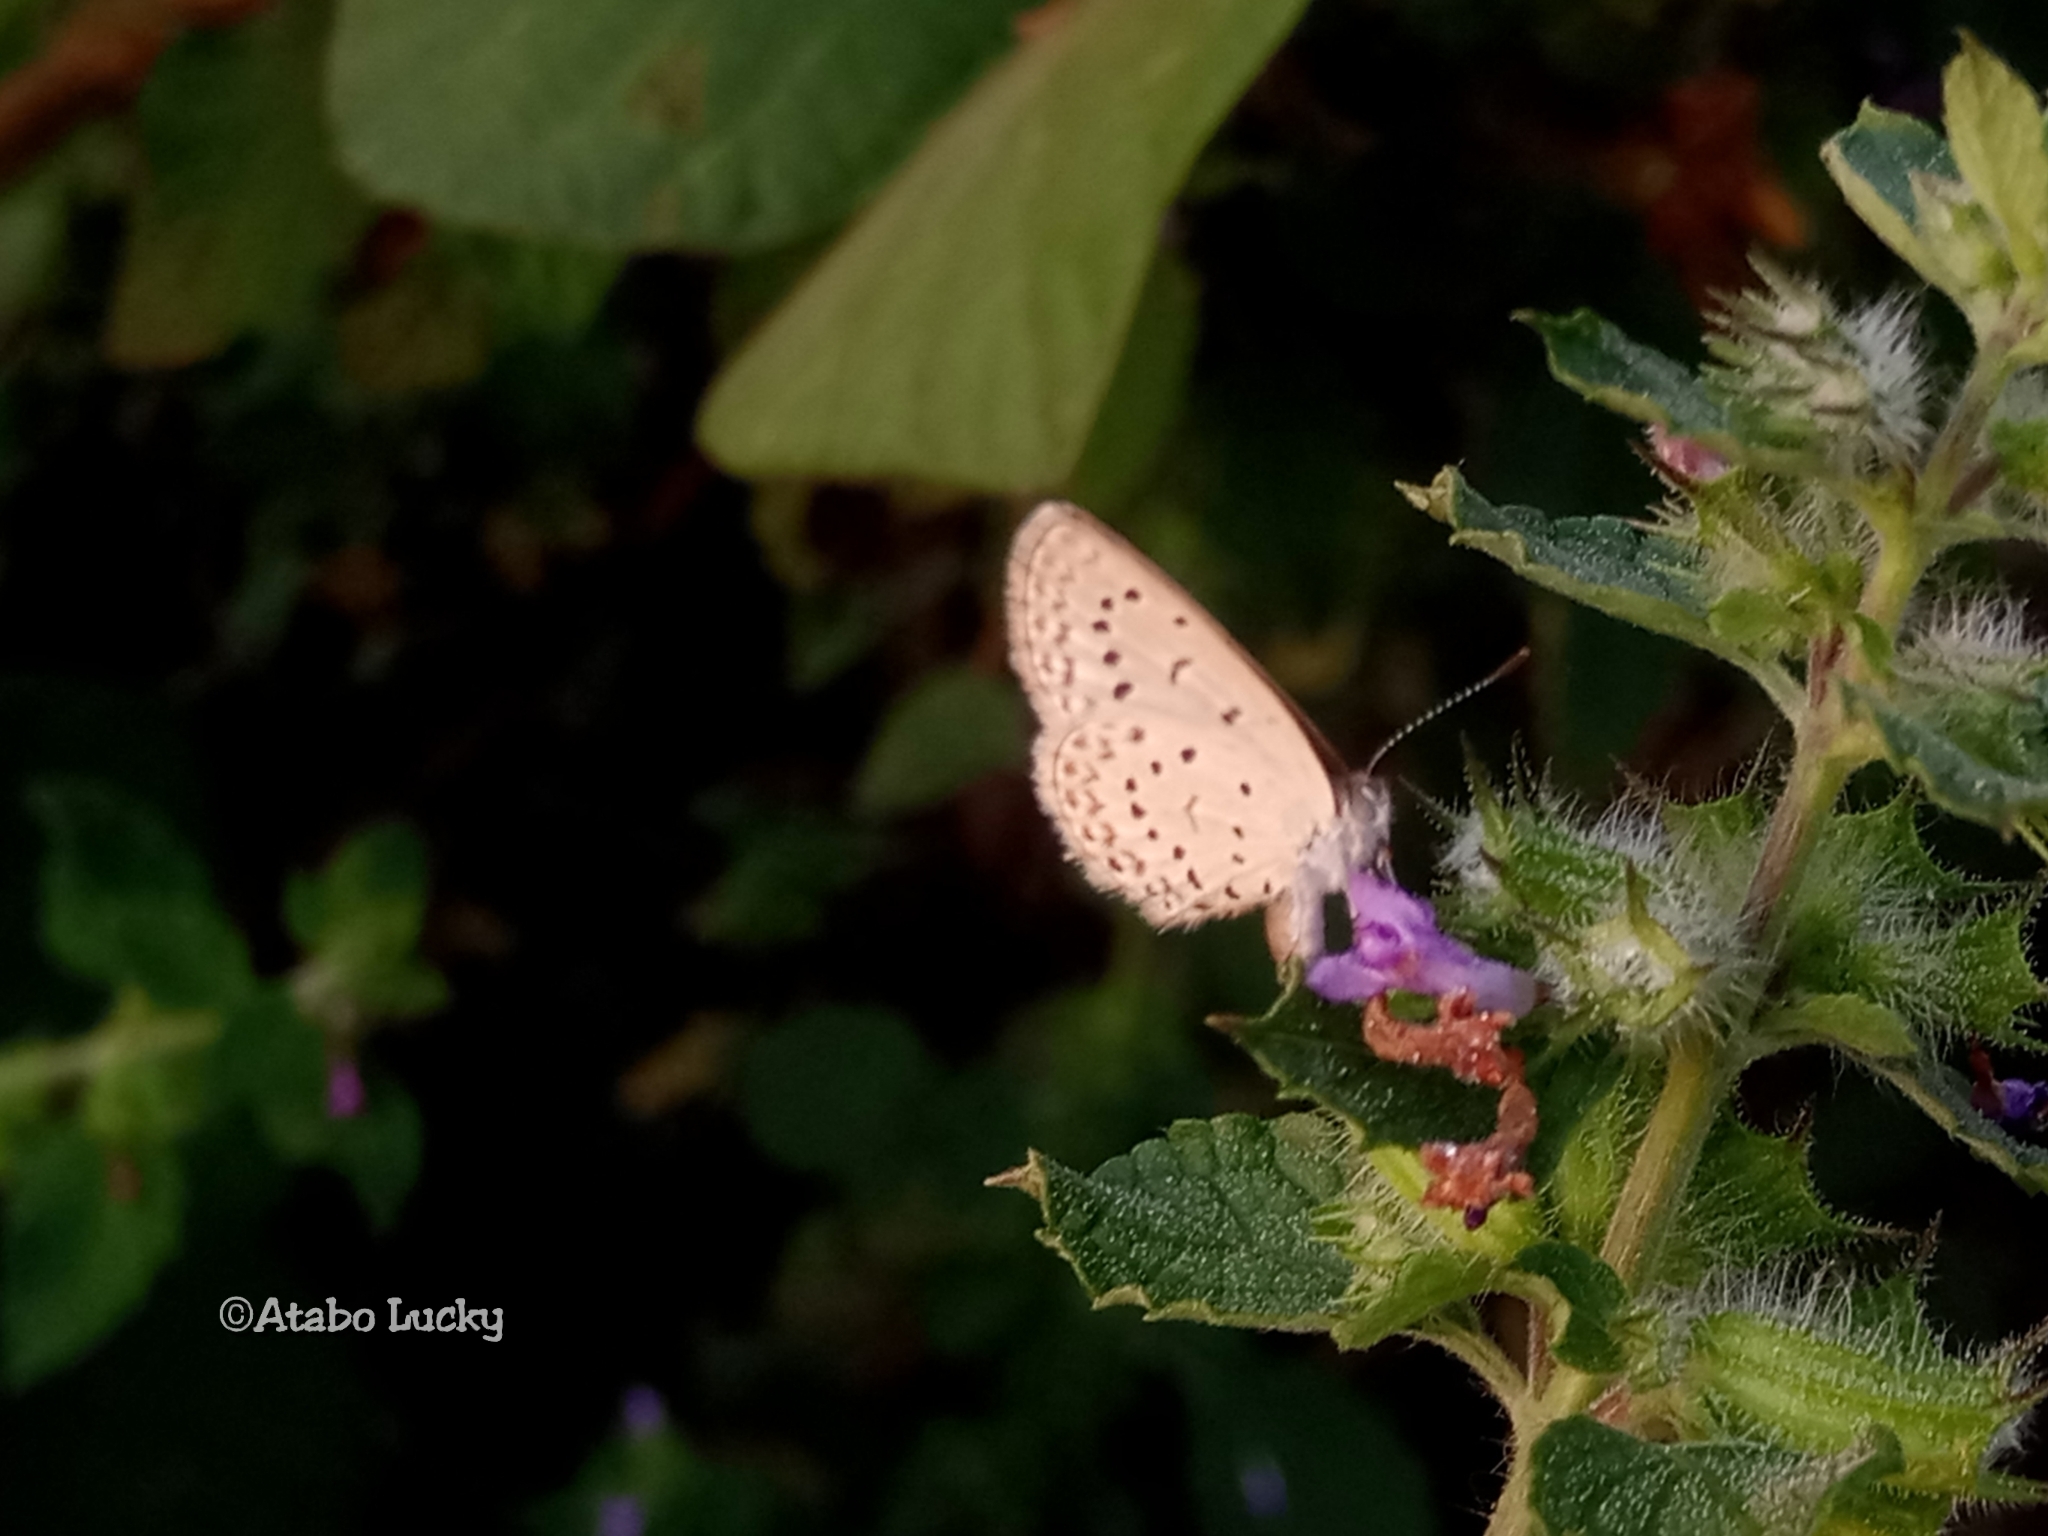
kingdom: Animalia
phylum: Arthropoda
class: Insecta
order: Lepidoptera
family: Lycaenidae
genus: Zizeeria
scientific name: Zizeeria knysna
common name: African grass blue
